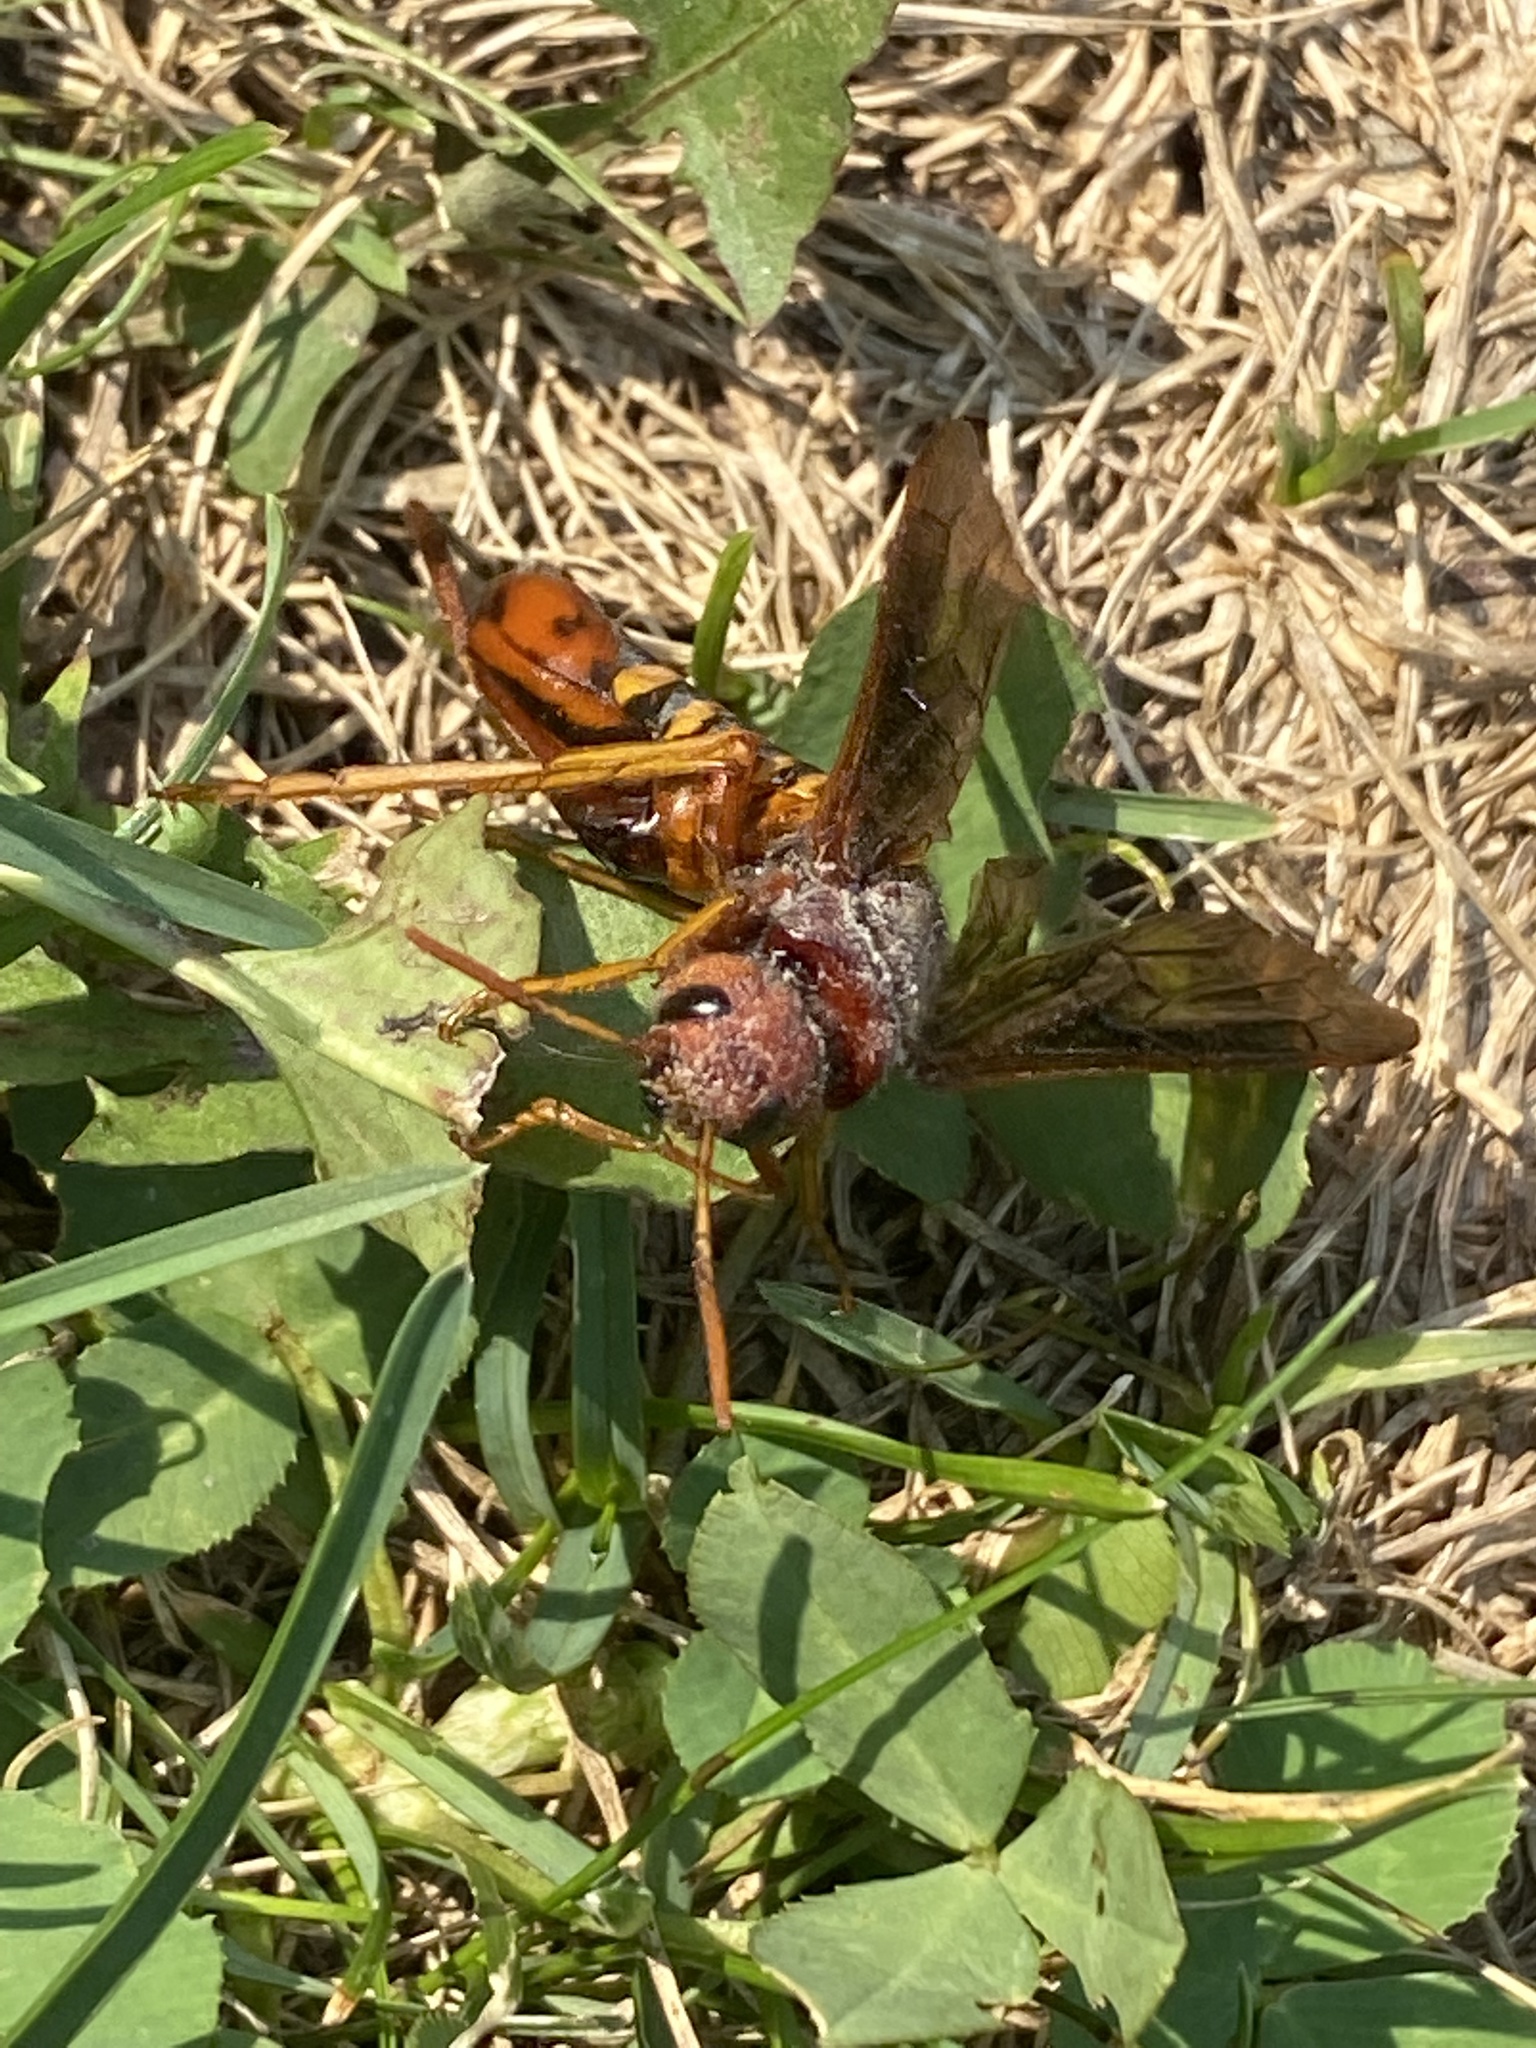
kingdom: Animalia
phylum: Arthropoda
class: Insecta
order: Hymenoptera
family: Siricidae
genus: Tremex
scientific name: Tremex columba
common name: Wasp
